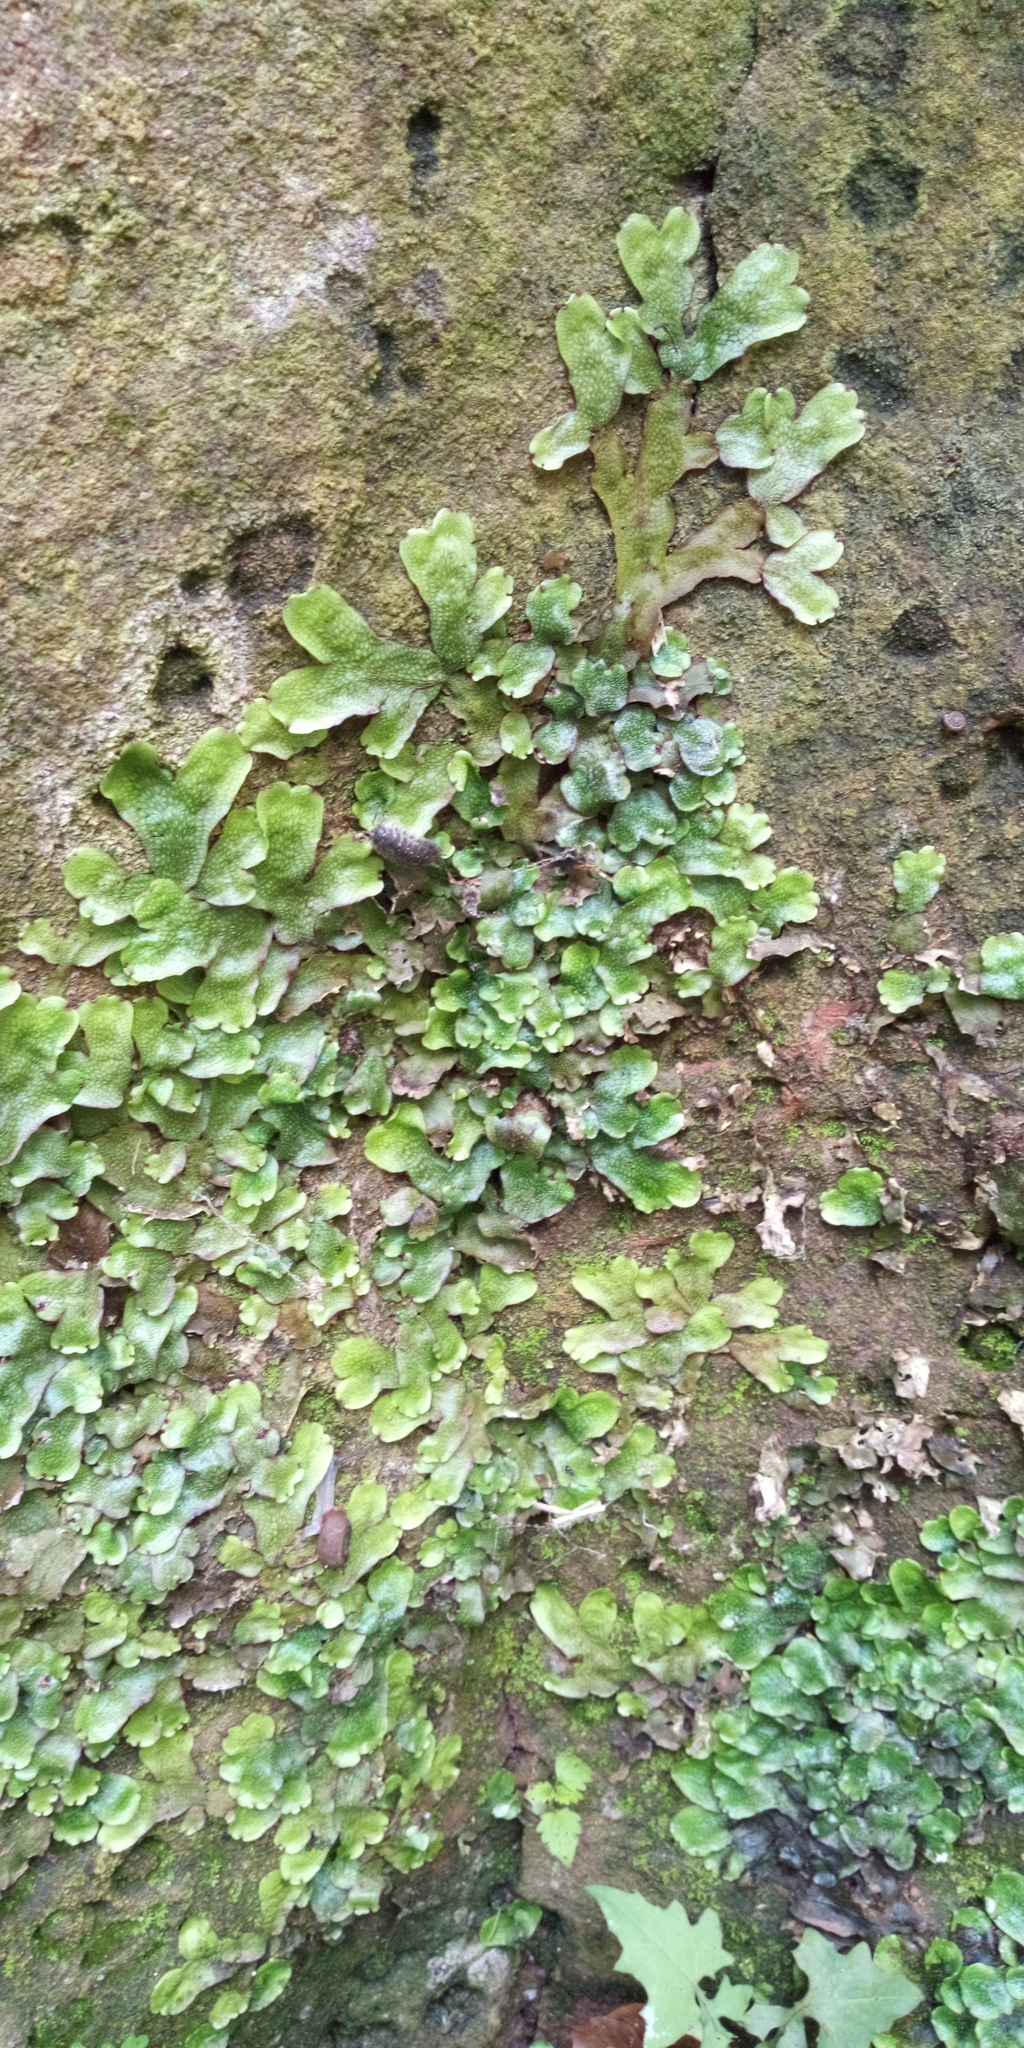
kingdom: Plantae
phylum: Marchantiophyta
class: Marchantiopsida
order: Marchantiales
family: Conocephalaceae
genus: Conocephalum
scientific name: Conocephalum salebrosum
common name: Cat-tongue liverwort
